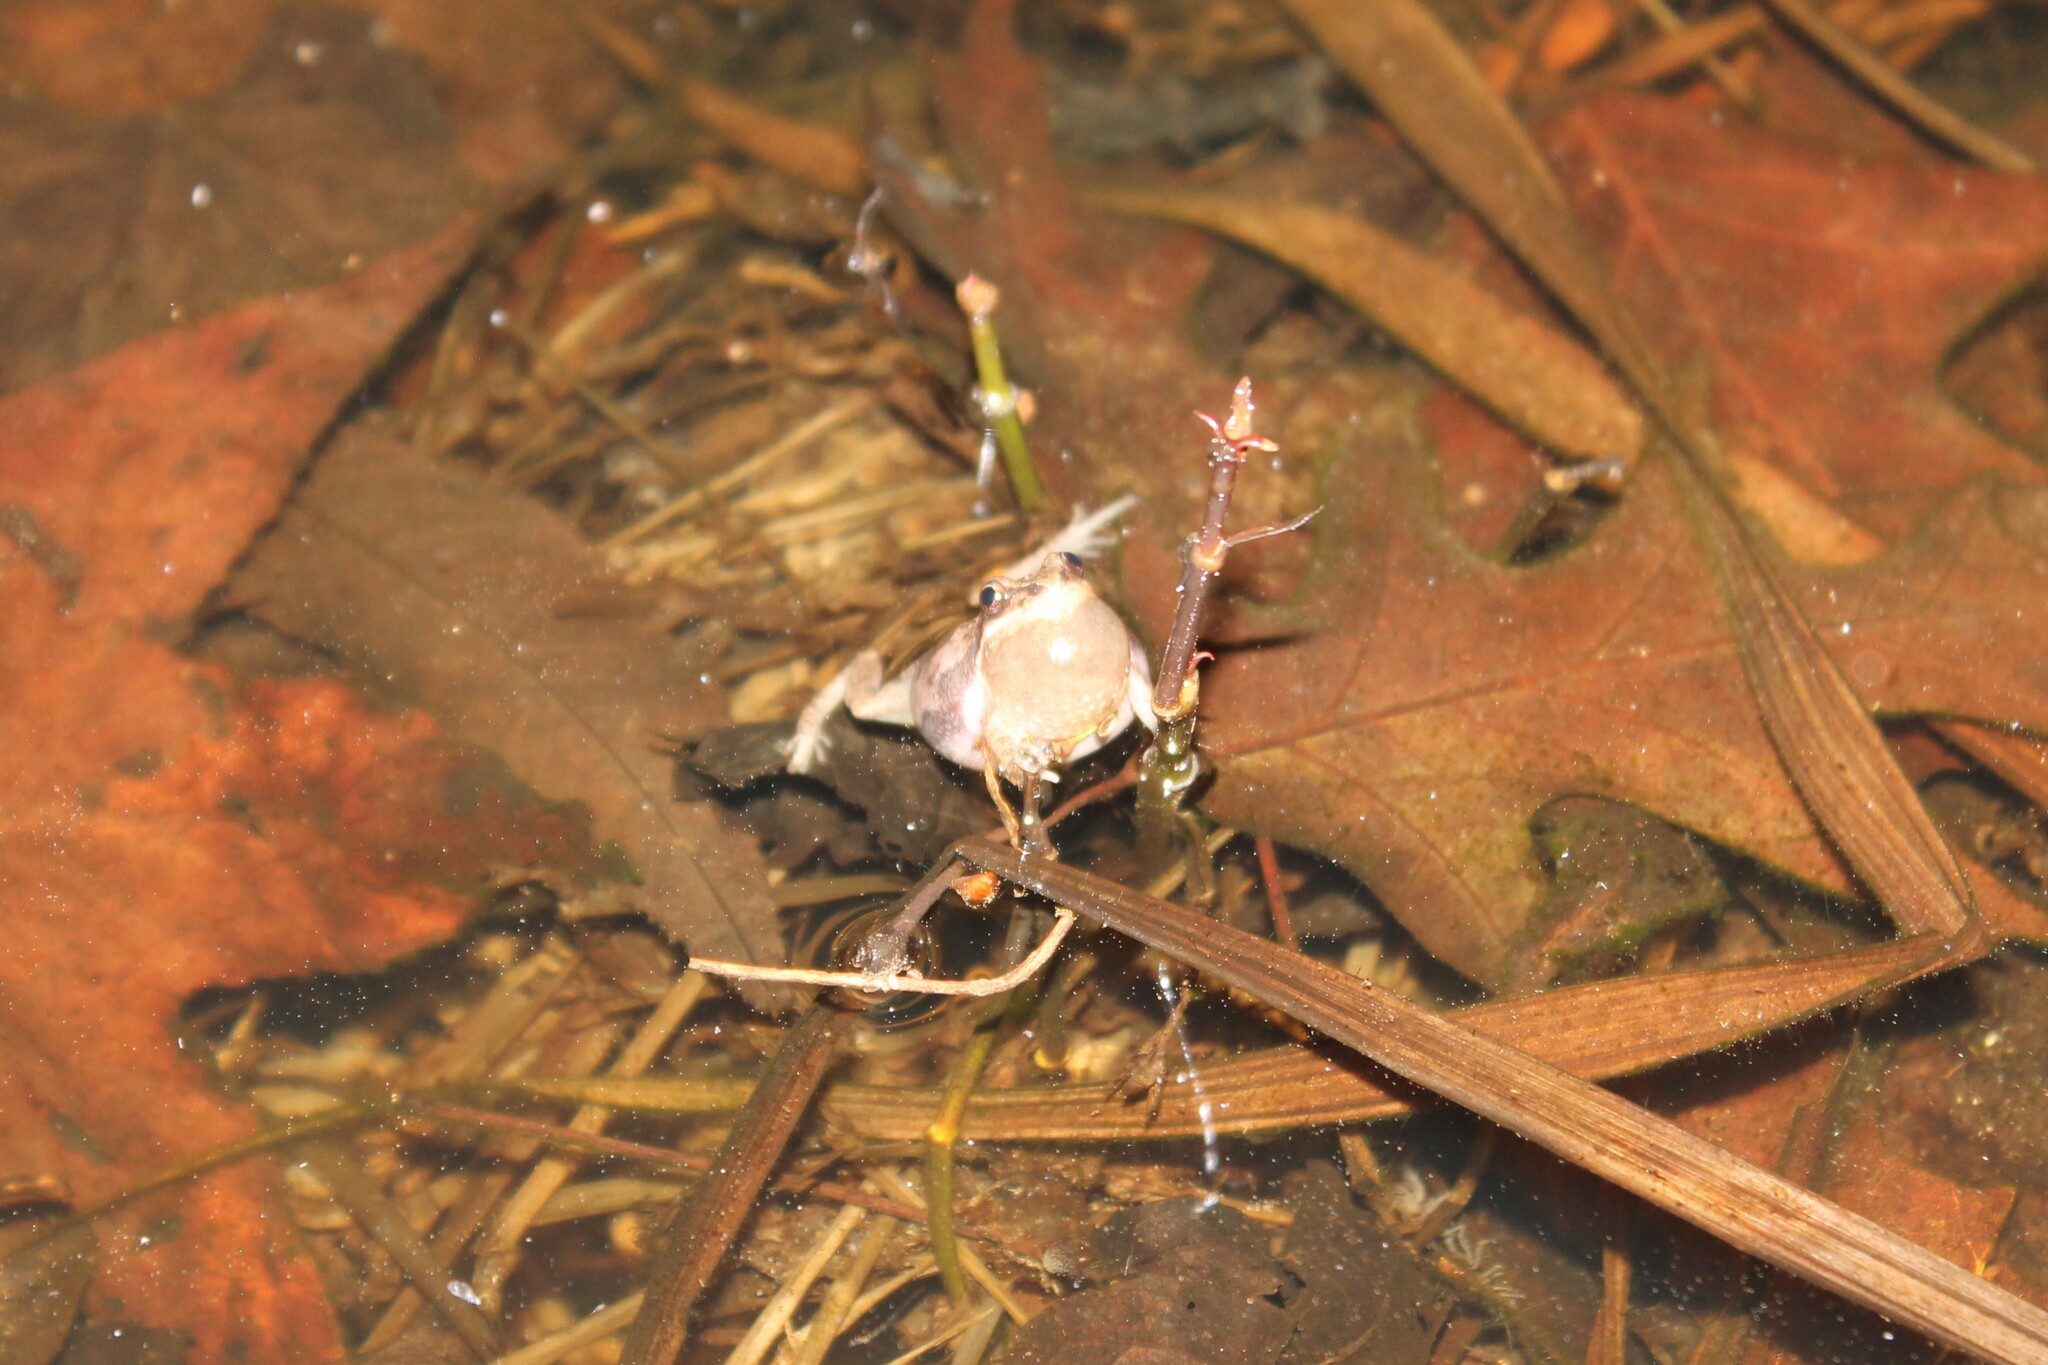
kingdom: Animalia
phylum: Chordata
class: Amphibia
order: Anura
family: Hylidae
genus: Pseudacris
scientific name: Pseudacris feriarum
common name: Upland chorus frog
